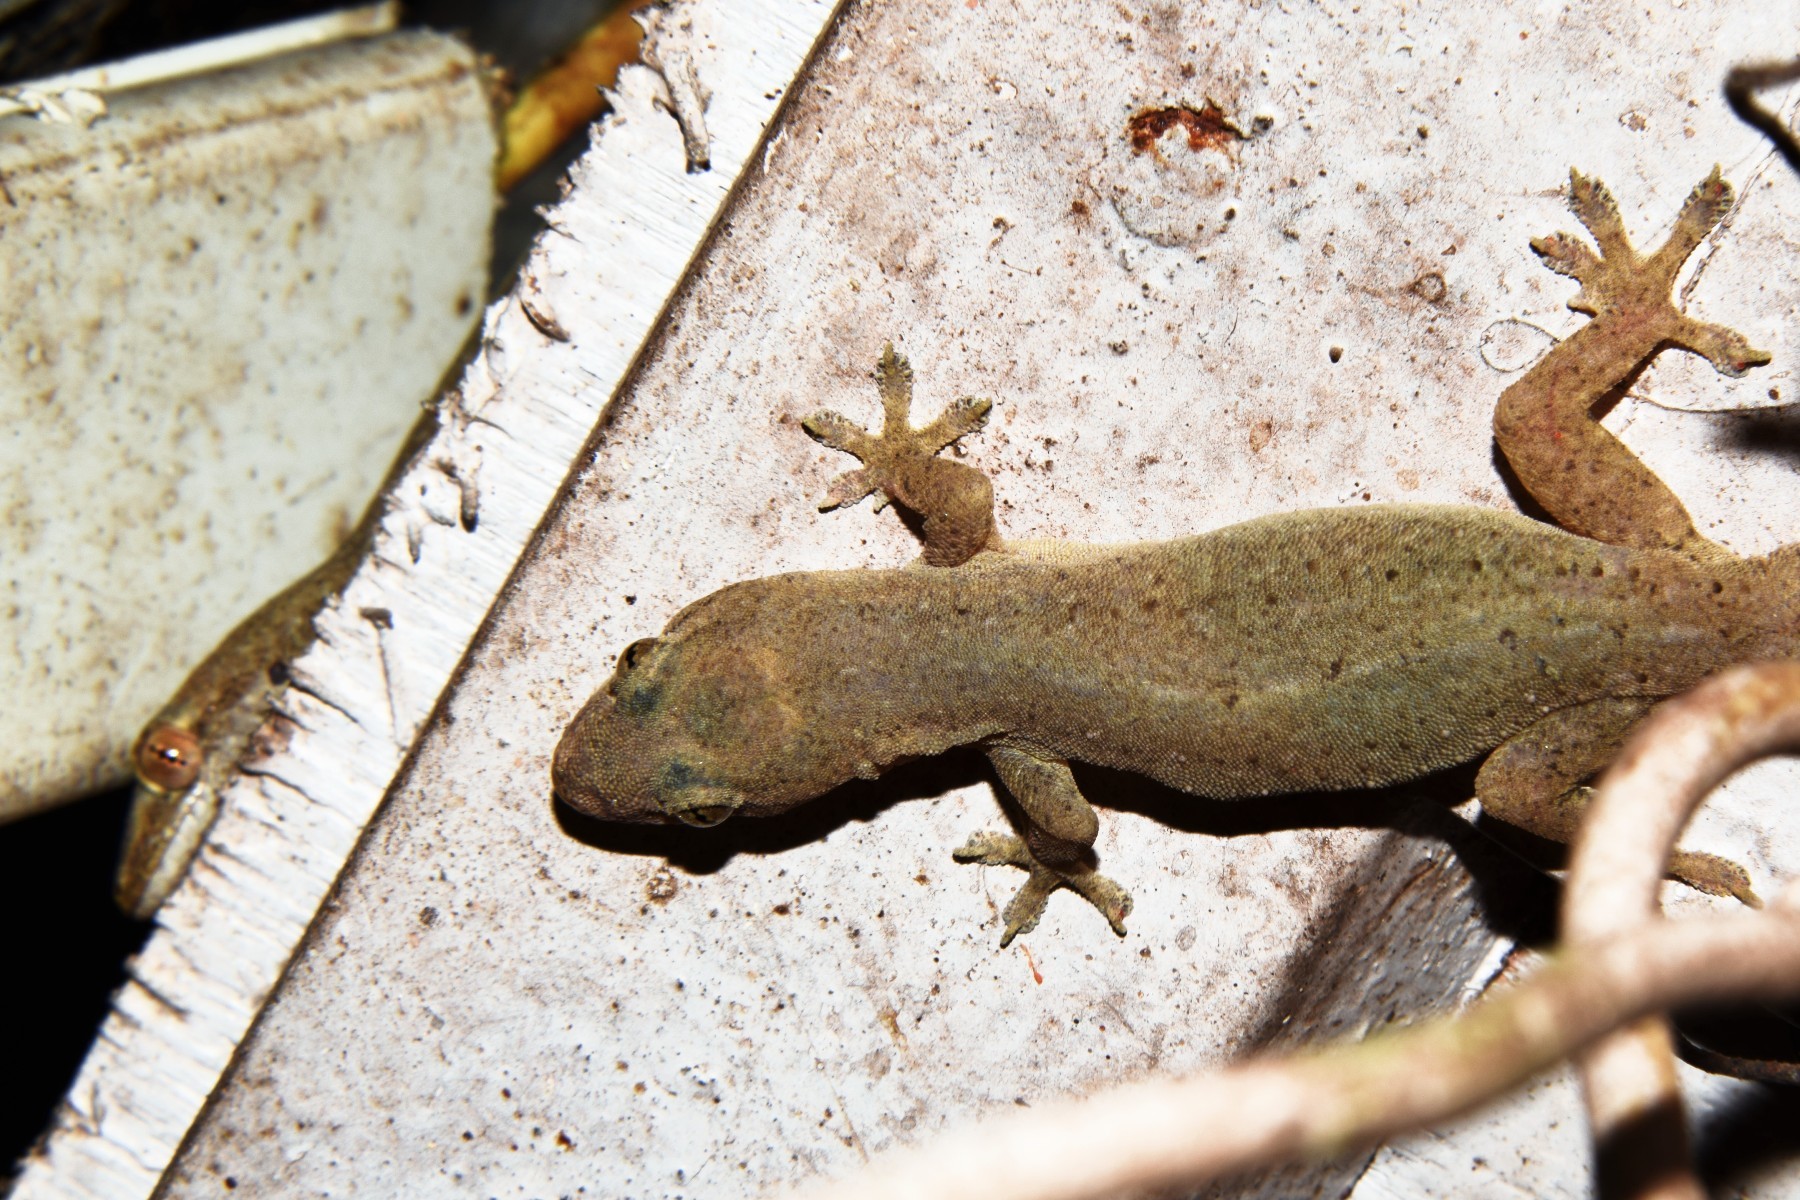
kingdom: Animalia
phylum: Chordata
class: Squamata
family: Gekkonidae
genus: Hemidactylus
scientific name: Hemidactylus frenatus
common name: Common house gecko
